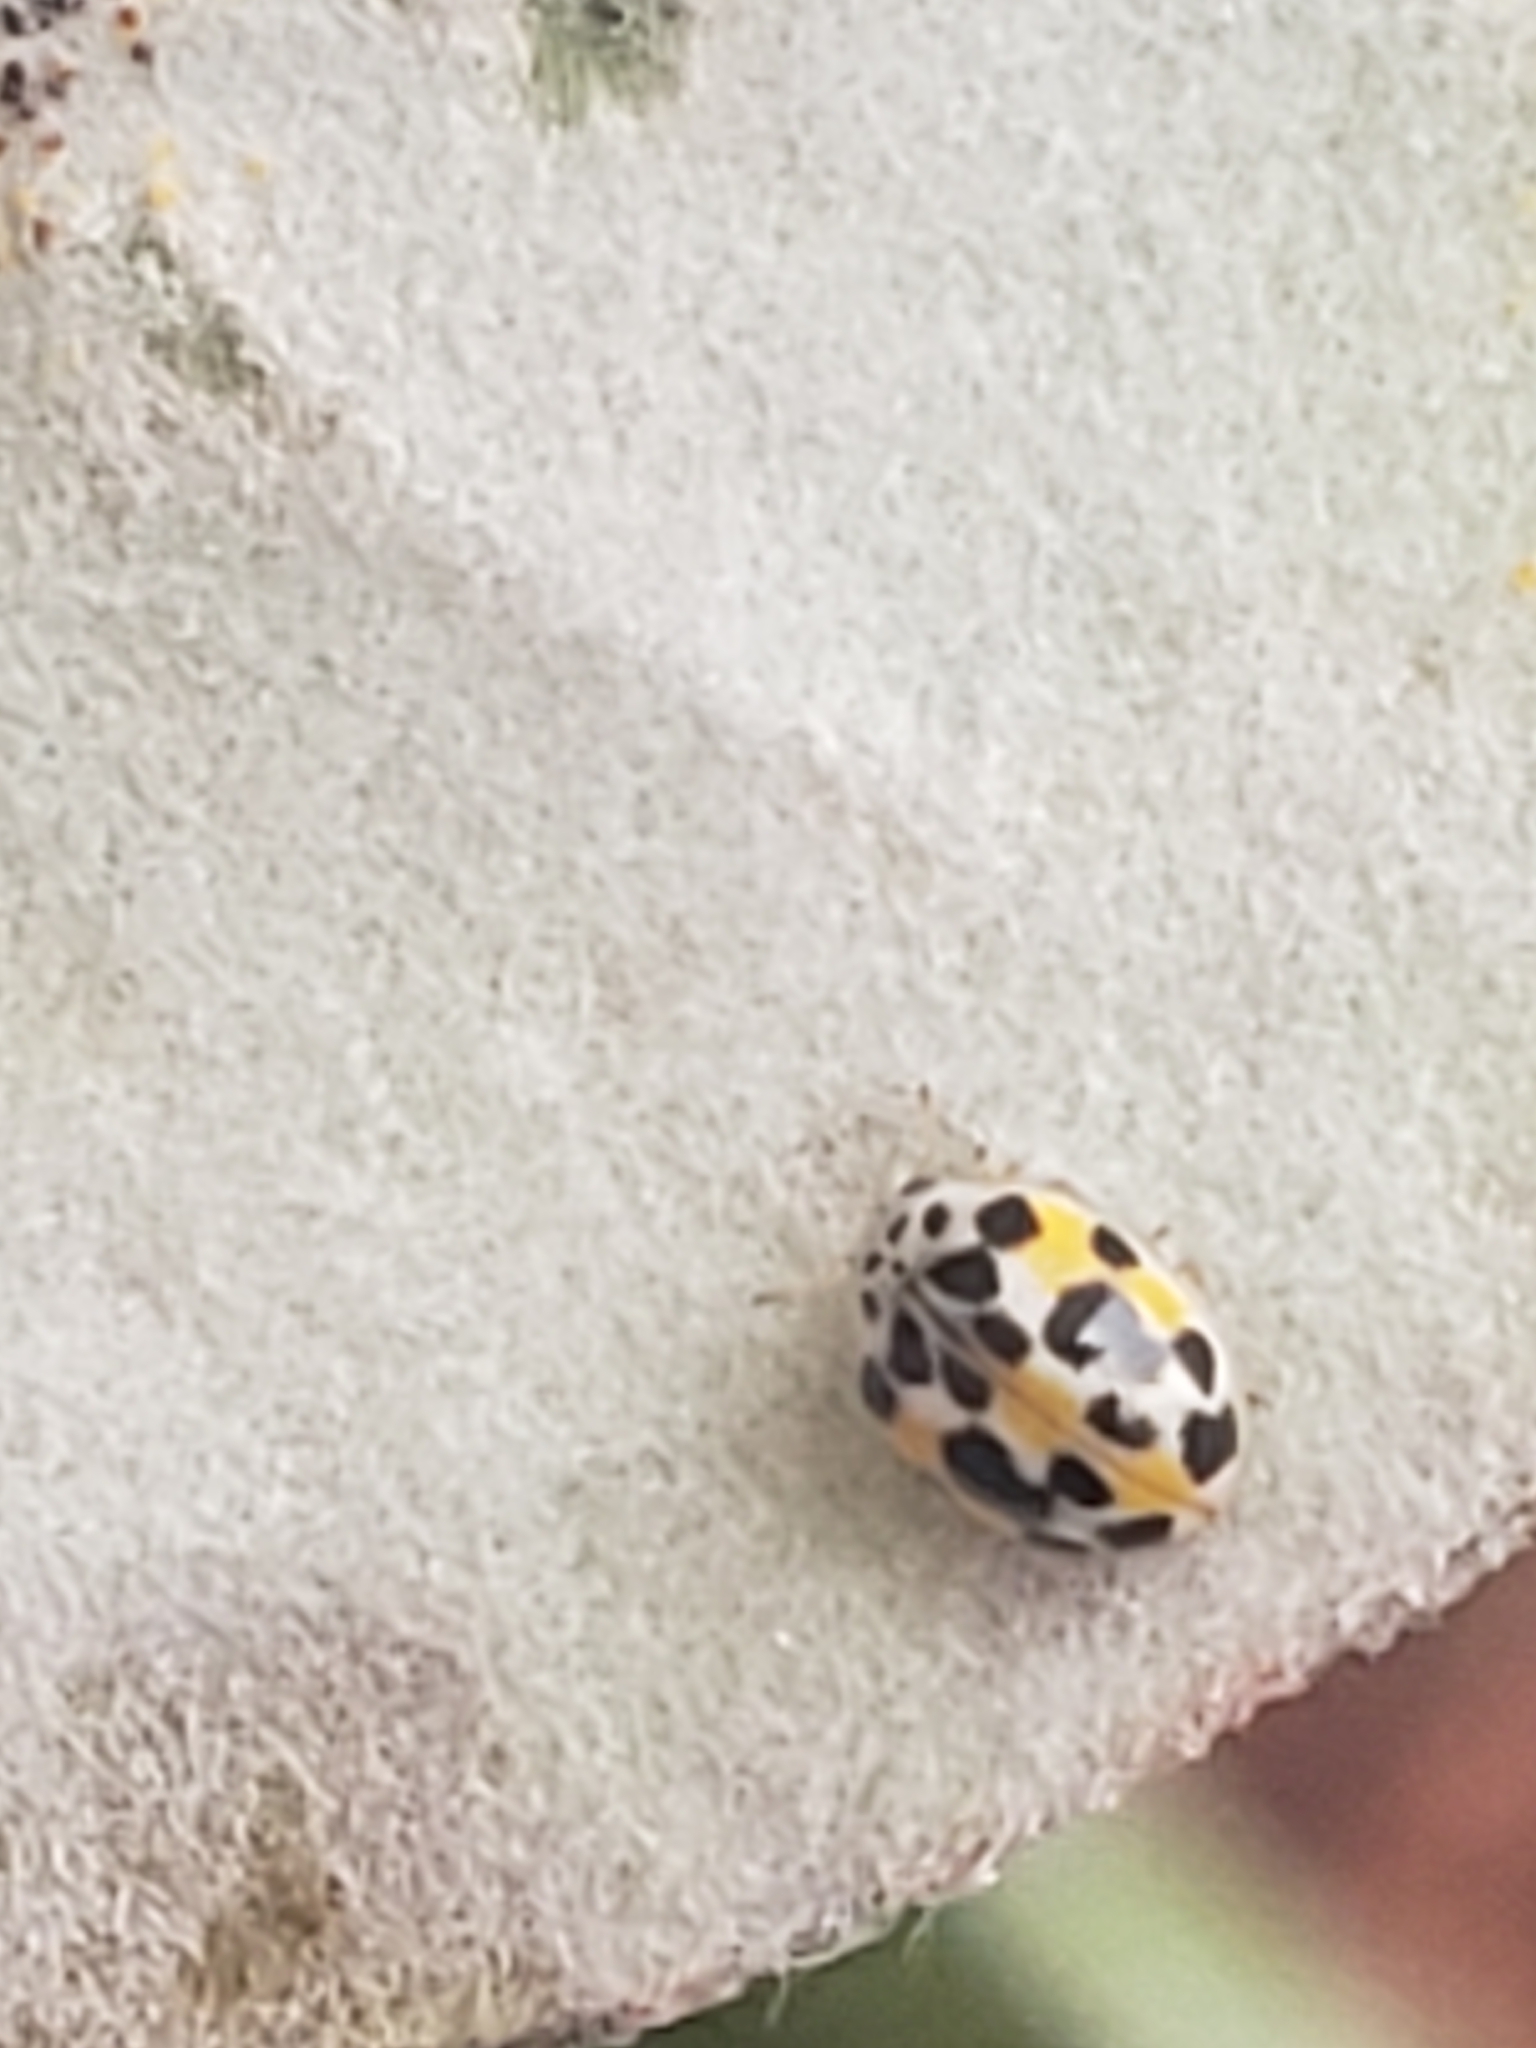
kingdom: Animalia
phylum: Arthropoda
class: Insecta
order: Coleoptera
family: Coccinellidae
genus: Psyllobora
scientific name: Psyllobora vigintimaculata
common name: Ladybird beetle
